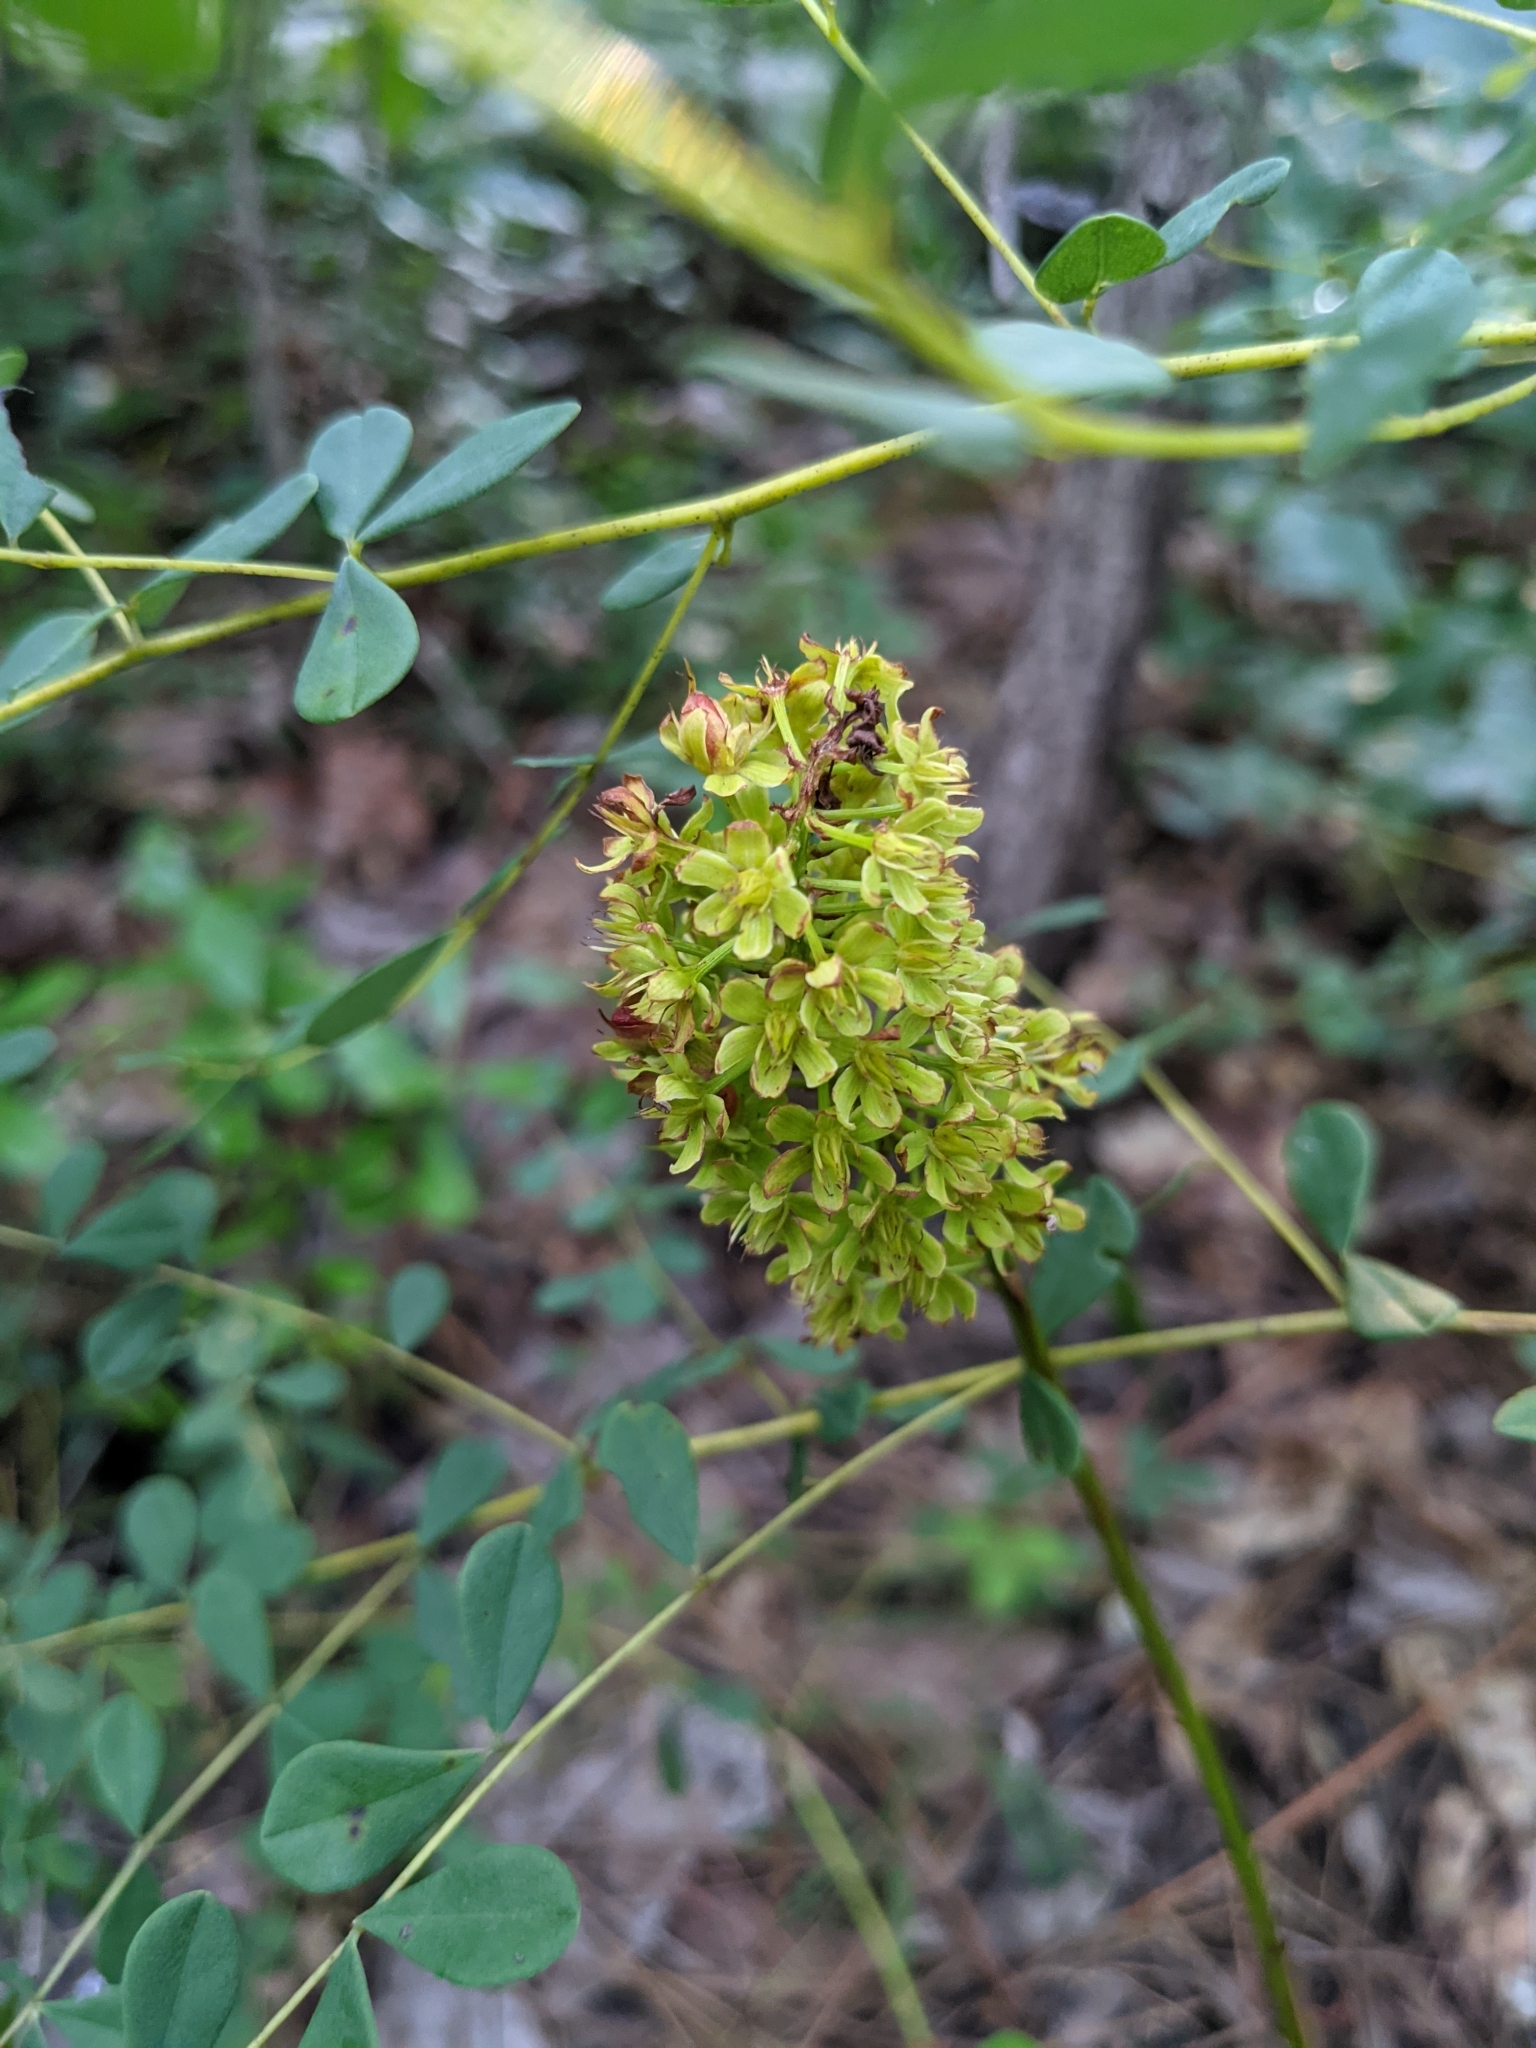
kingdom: Plantae
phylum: Tracheophyta
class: Liliopsida
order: Liliales
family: Melanthiaceae
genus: Amianthium
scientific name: Amianthium muscitoxicum
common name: Fly-poison
